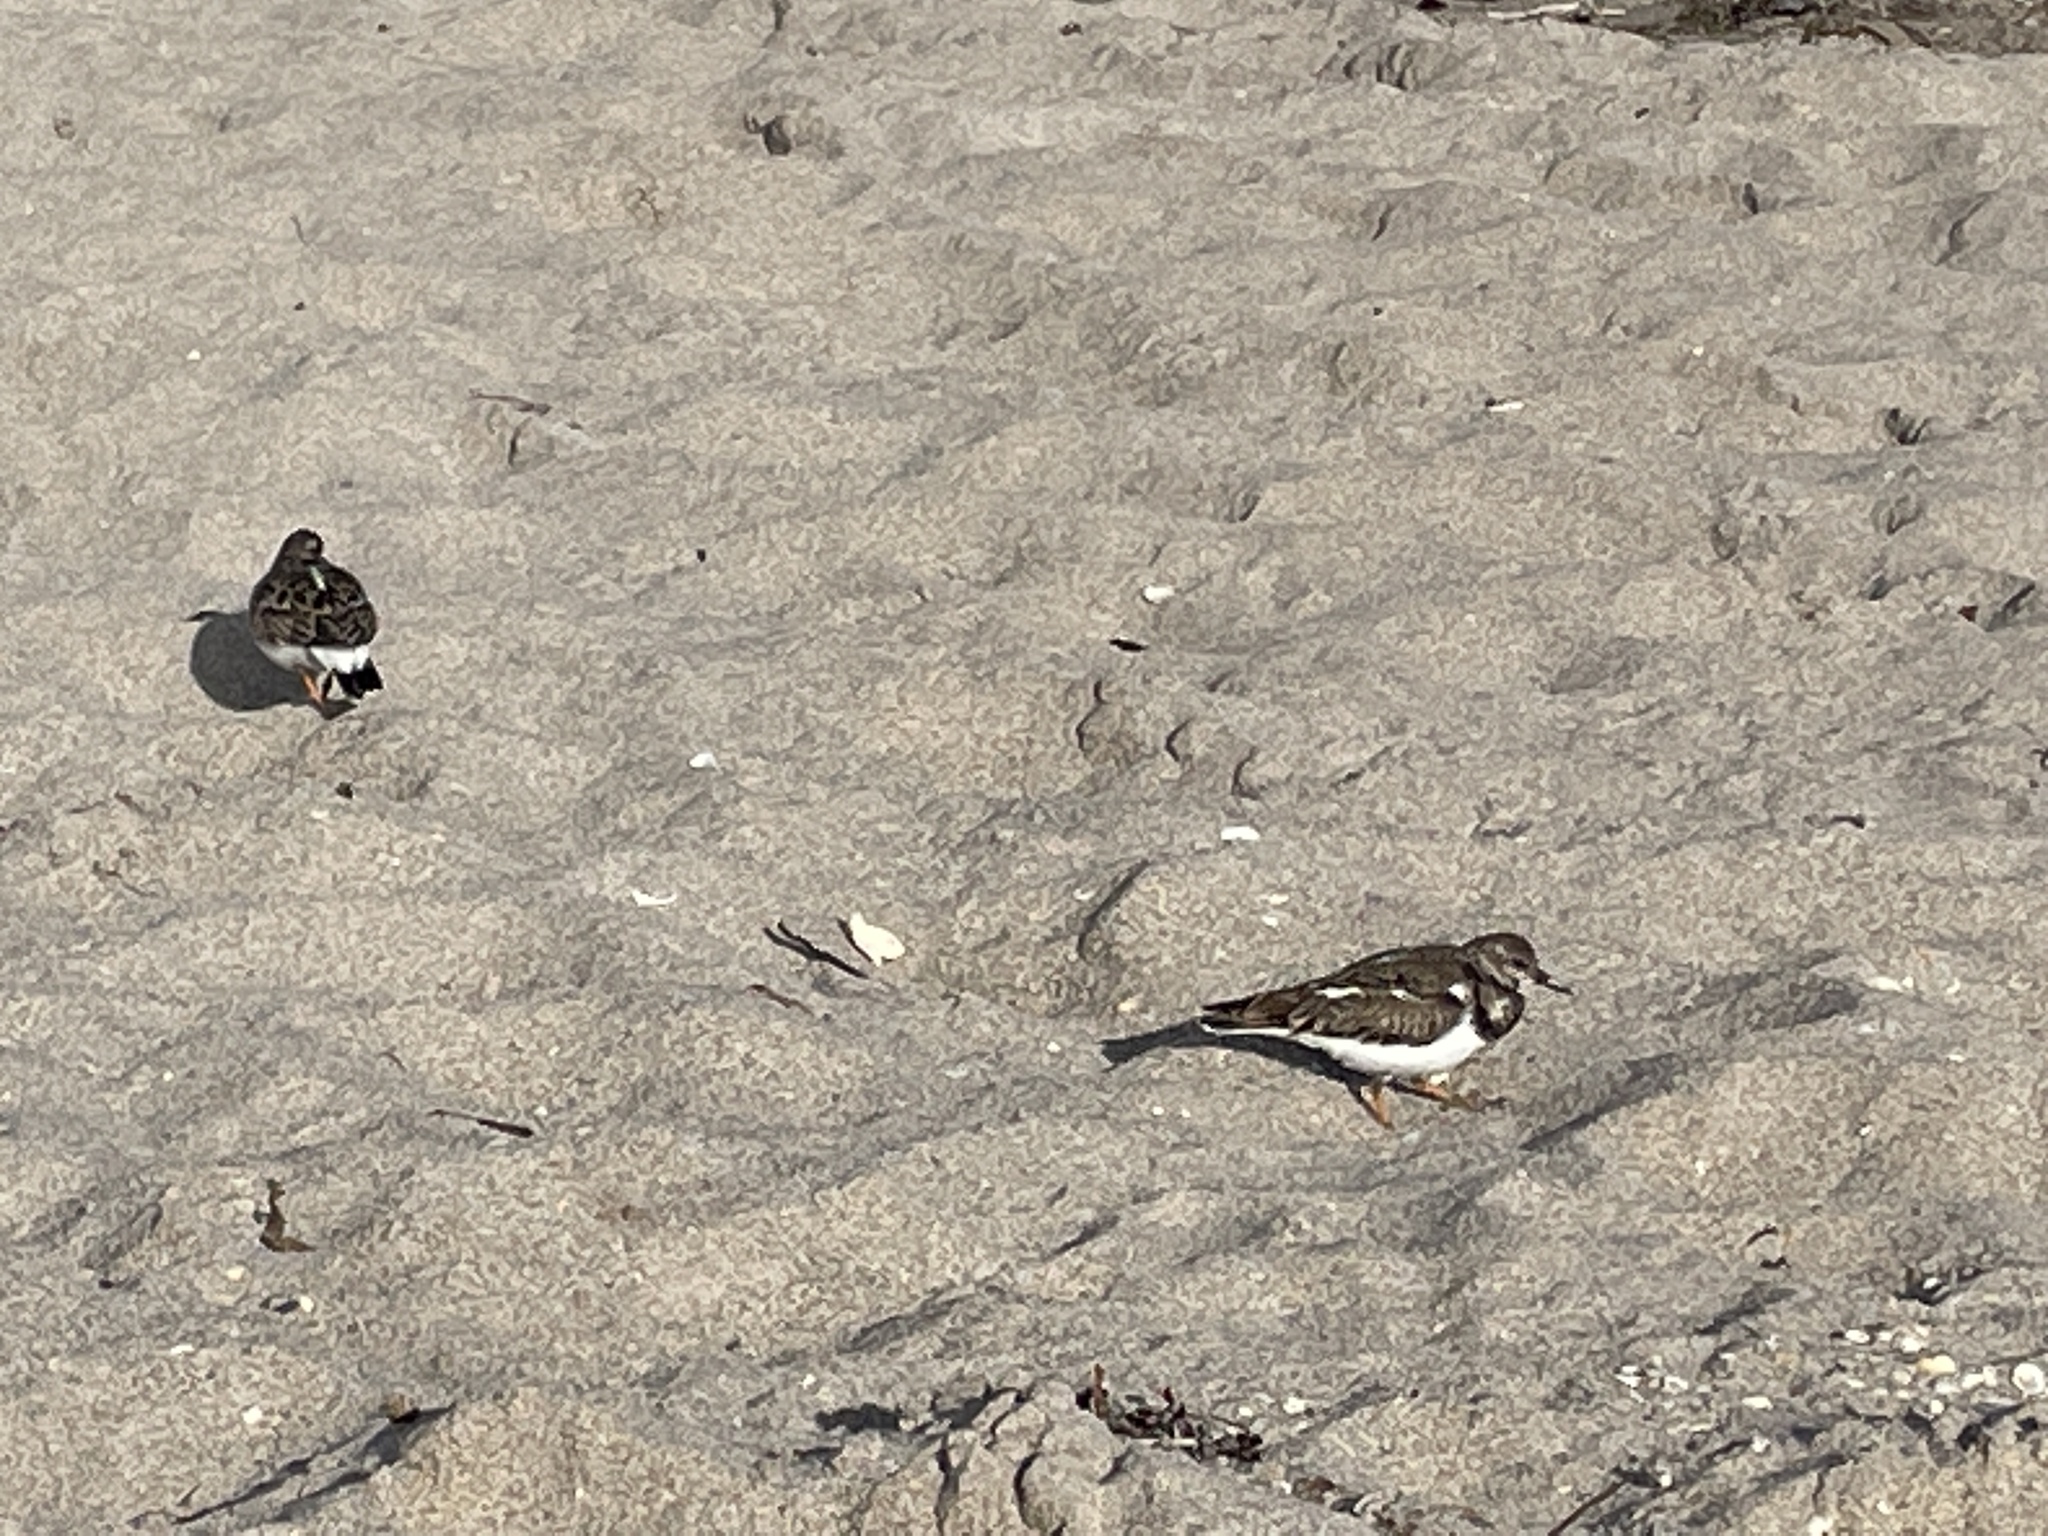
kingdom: Animalia
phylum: Chordata
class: Aves
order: Charadriiformes
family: Scolopacidae
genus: Arenaria
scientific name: Arenaria interpres
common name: Ruddy turnstone
